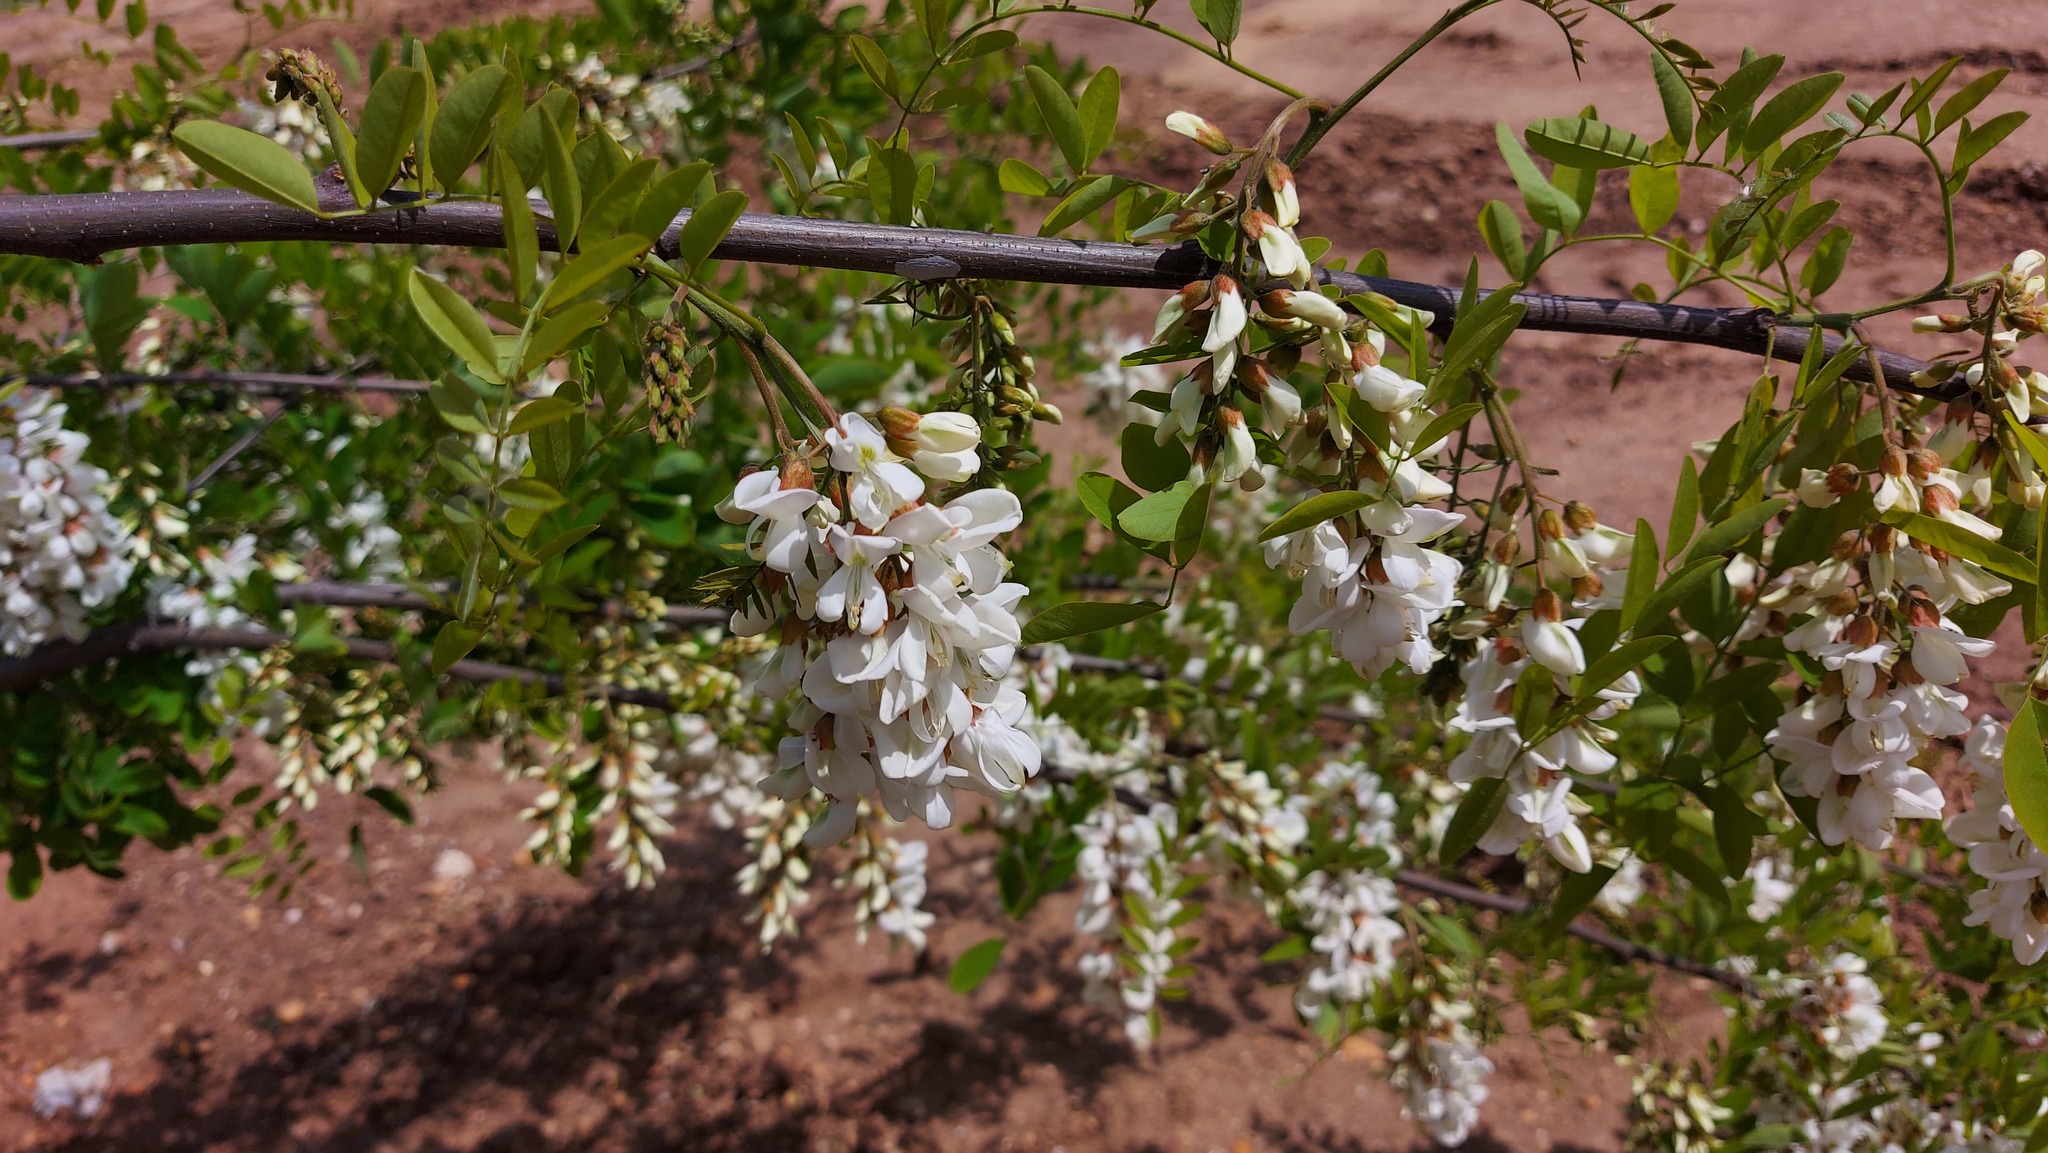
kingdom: Plantae
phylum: Tracheophyta
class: Magnoliopsida
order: Fabales
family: Fabaceae
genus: Robinia
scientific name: Robinia pseudoacacia
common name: Black locust
